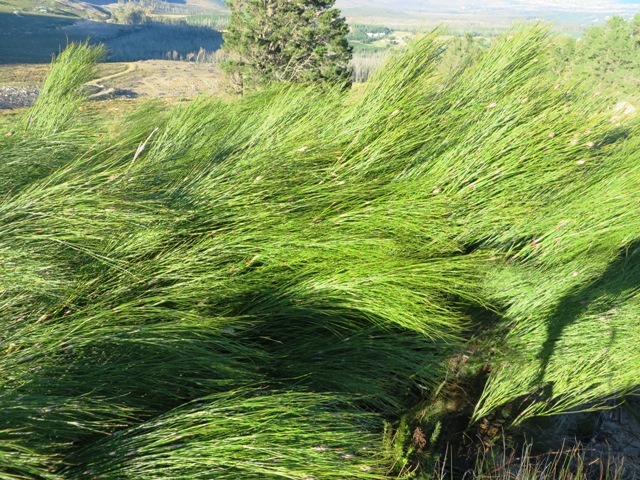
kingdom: Plantae
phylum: Tracheophyta
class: Liliopsida
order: Poales
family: Restionaceae
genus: Cannomois
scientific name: Cannomois virgata
